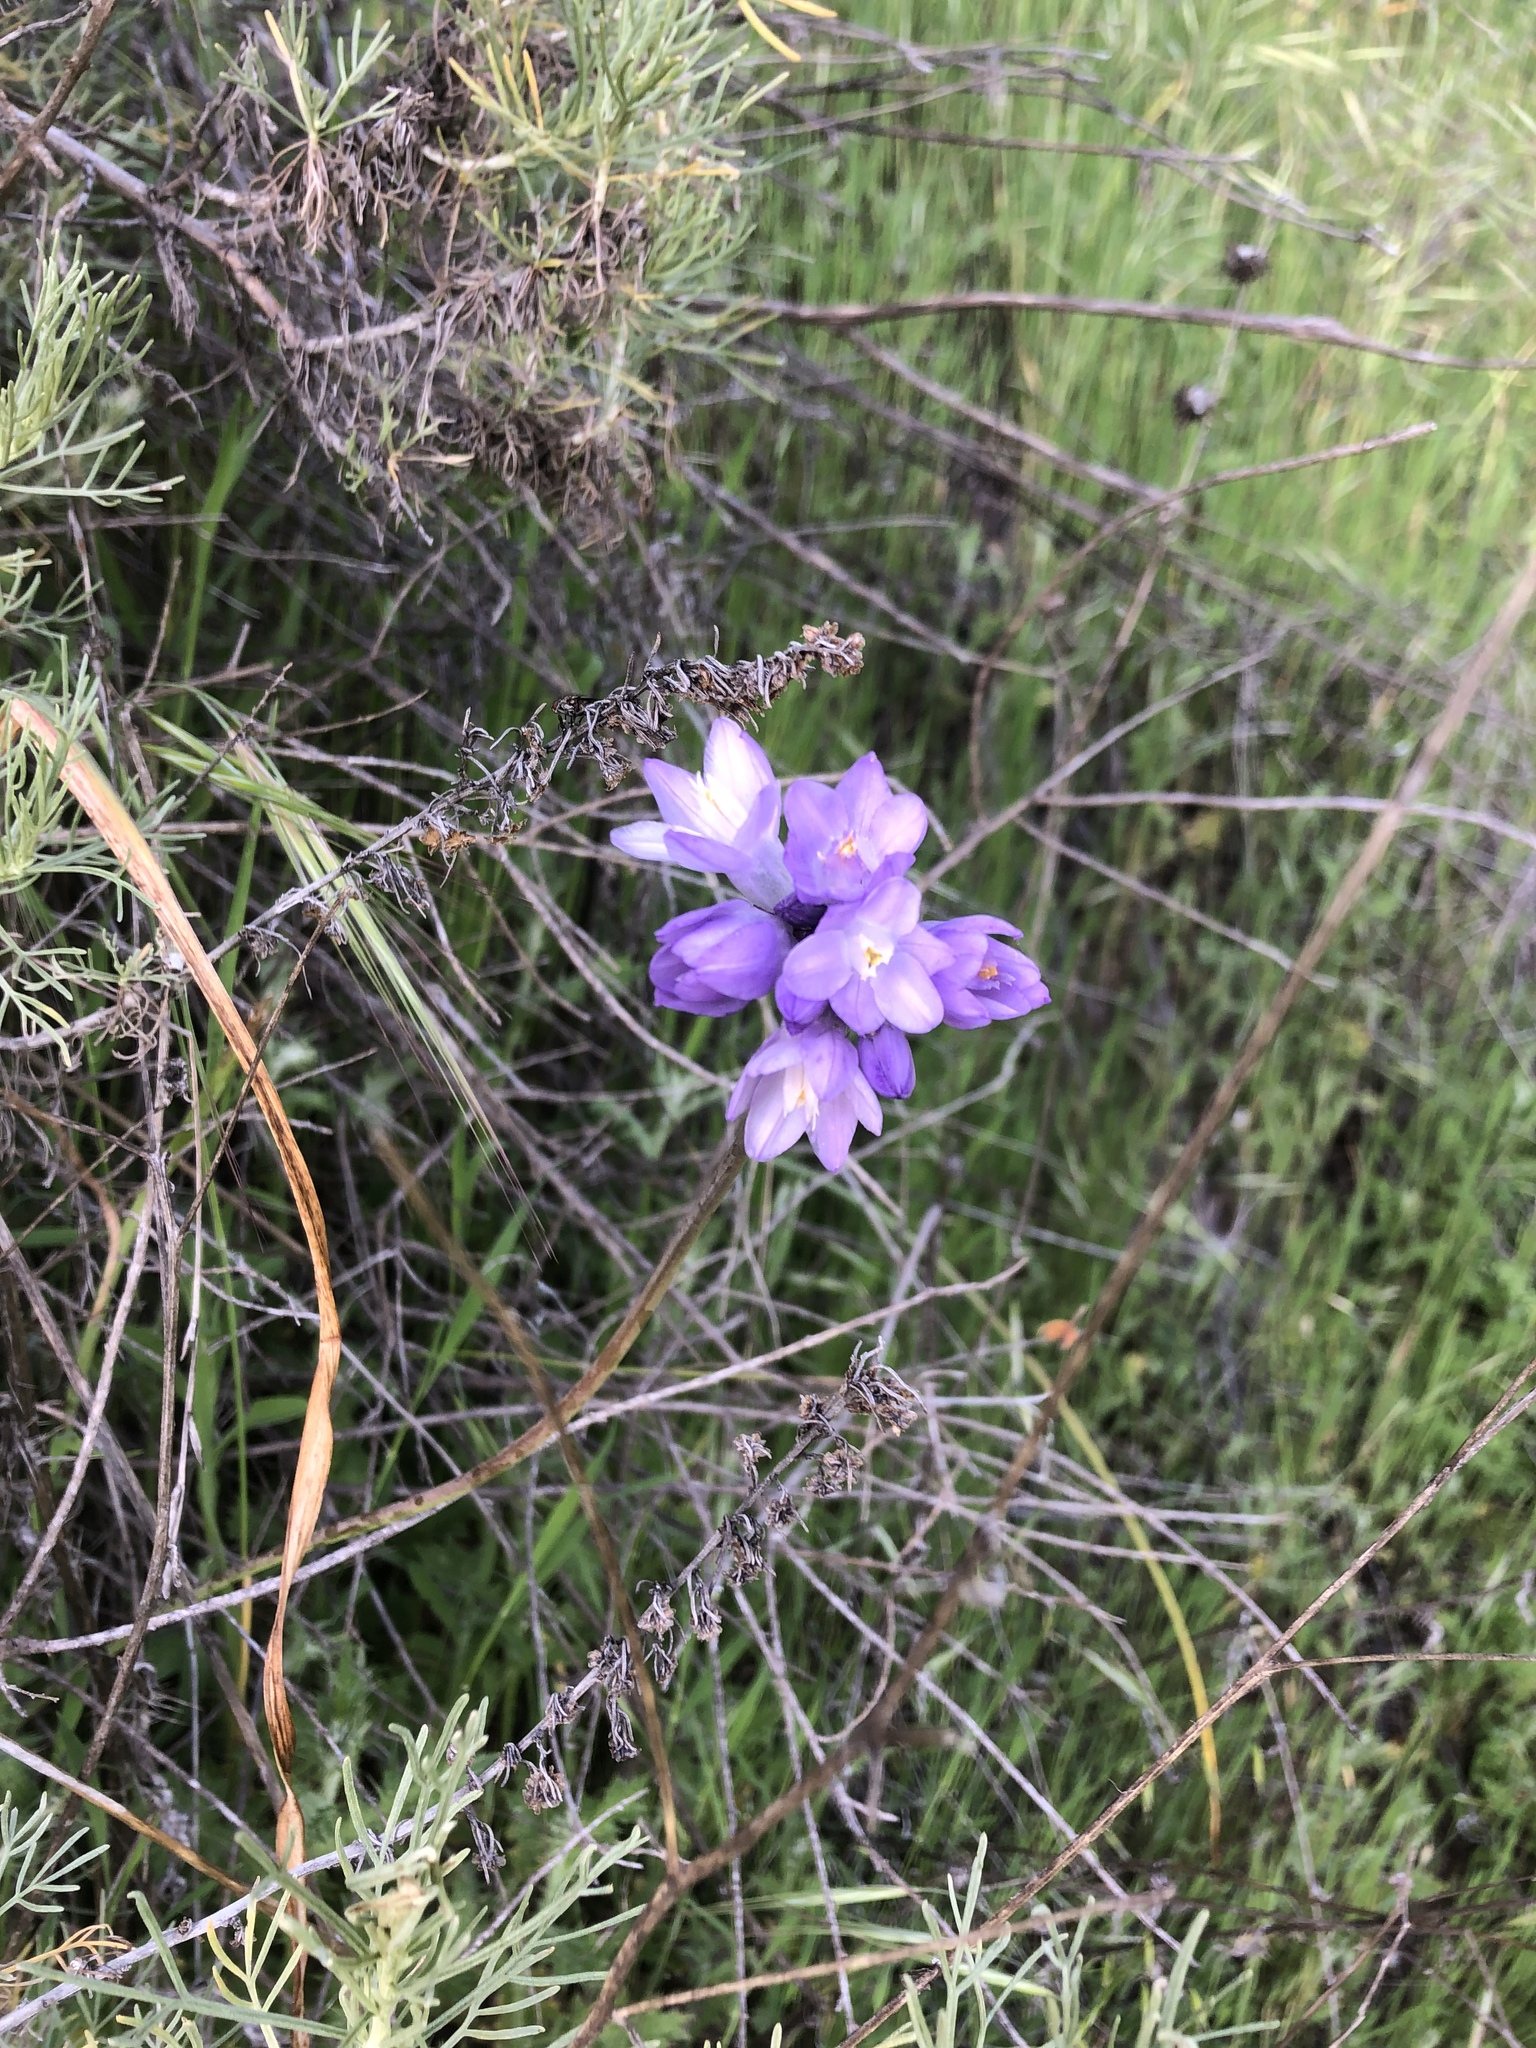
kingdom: Plantae
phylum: Tracheophyta
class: Liliopsida
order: Asparagales
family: Asparagaceae
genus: Dipterostemon
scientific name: Dipterostemon capitatus
